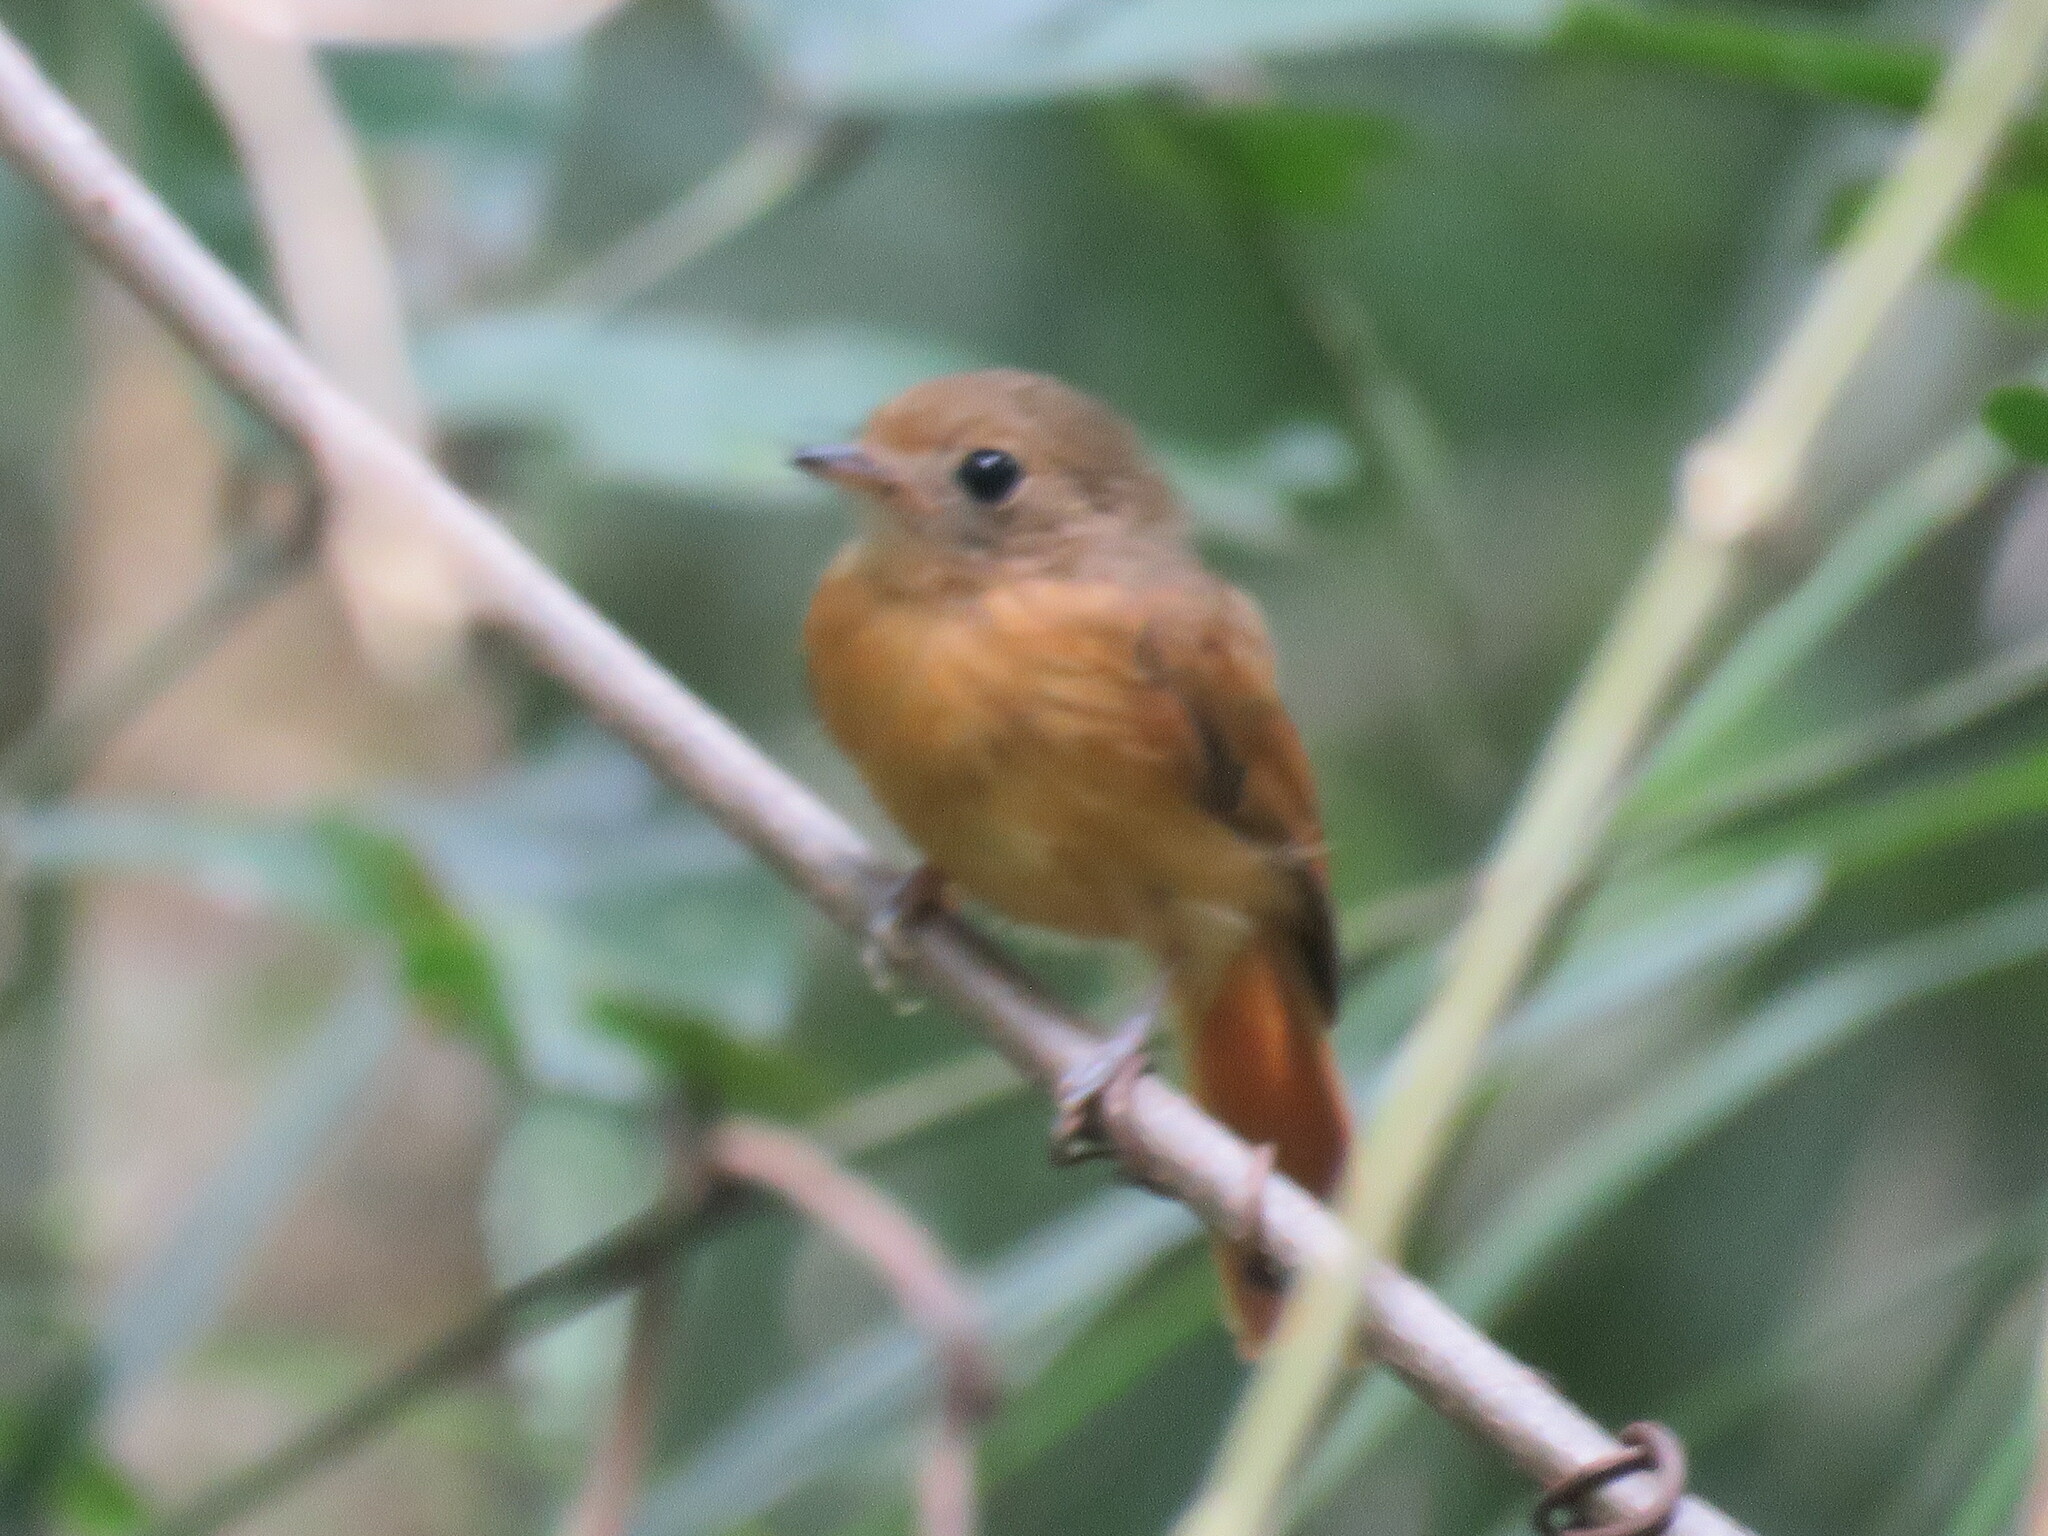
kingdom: Animalia
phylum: Chordata
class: Aves
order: Passeriformes
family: Tyrannidae
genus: Terenotriccus
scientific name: Terenotriccus erythrurus
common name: Ruddy-tailed flycatcher
